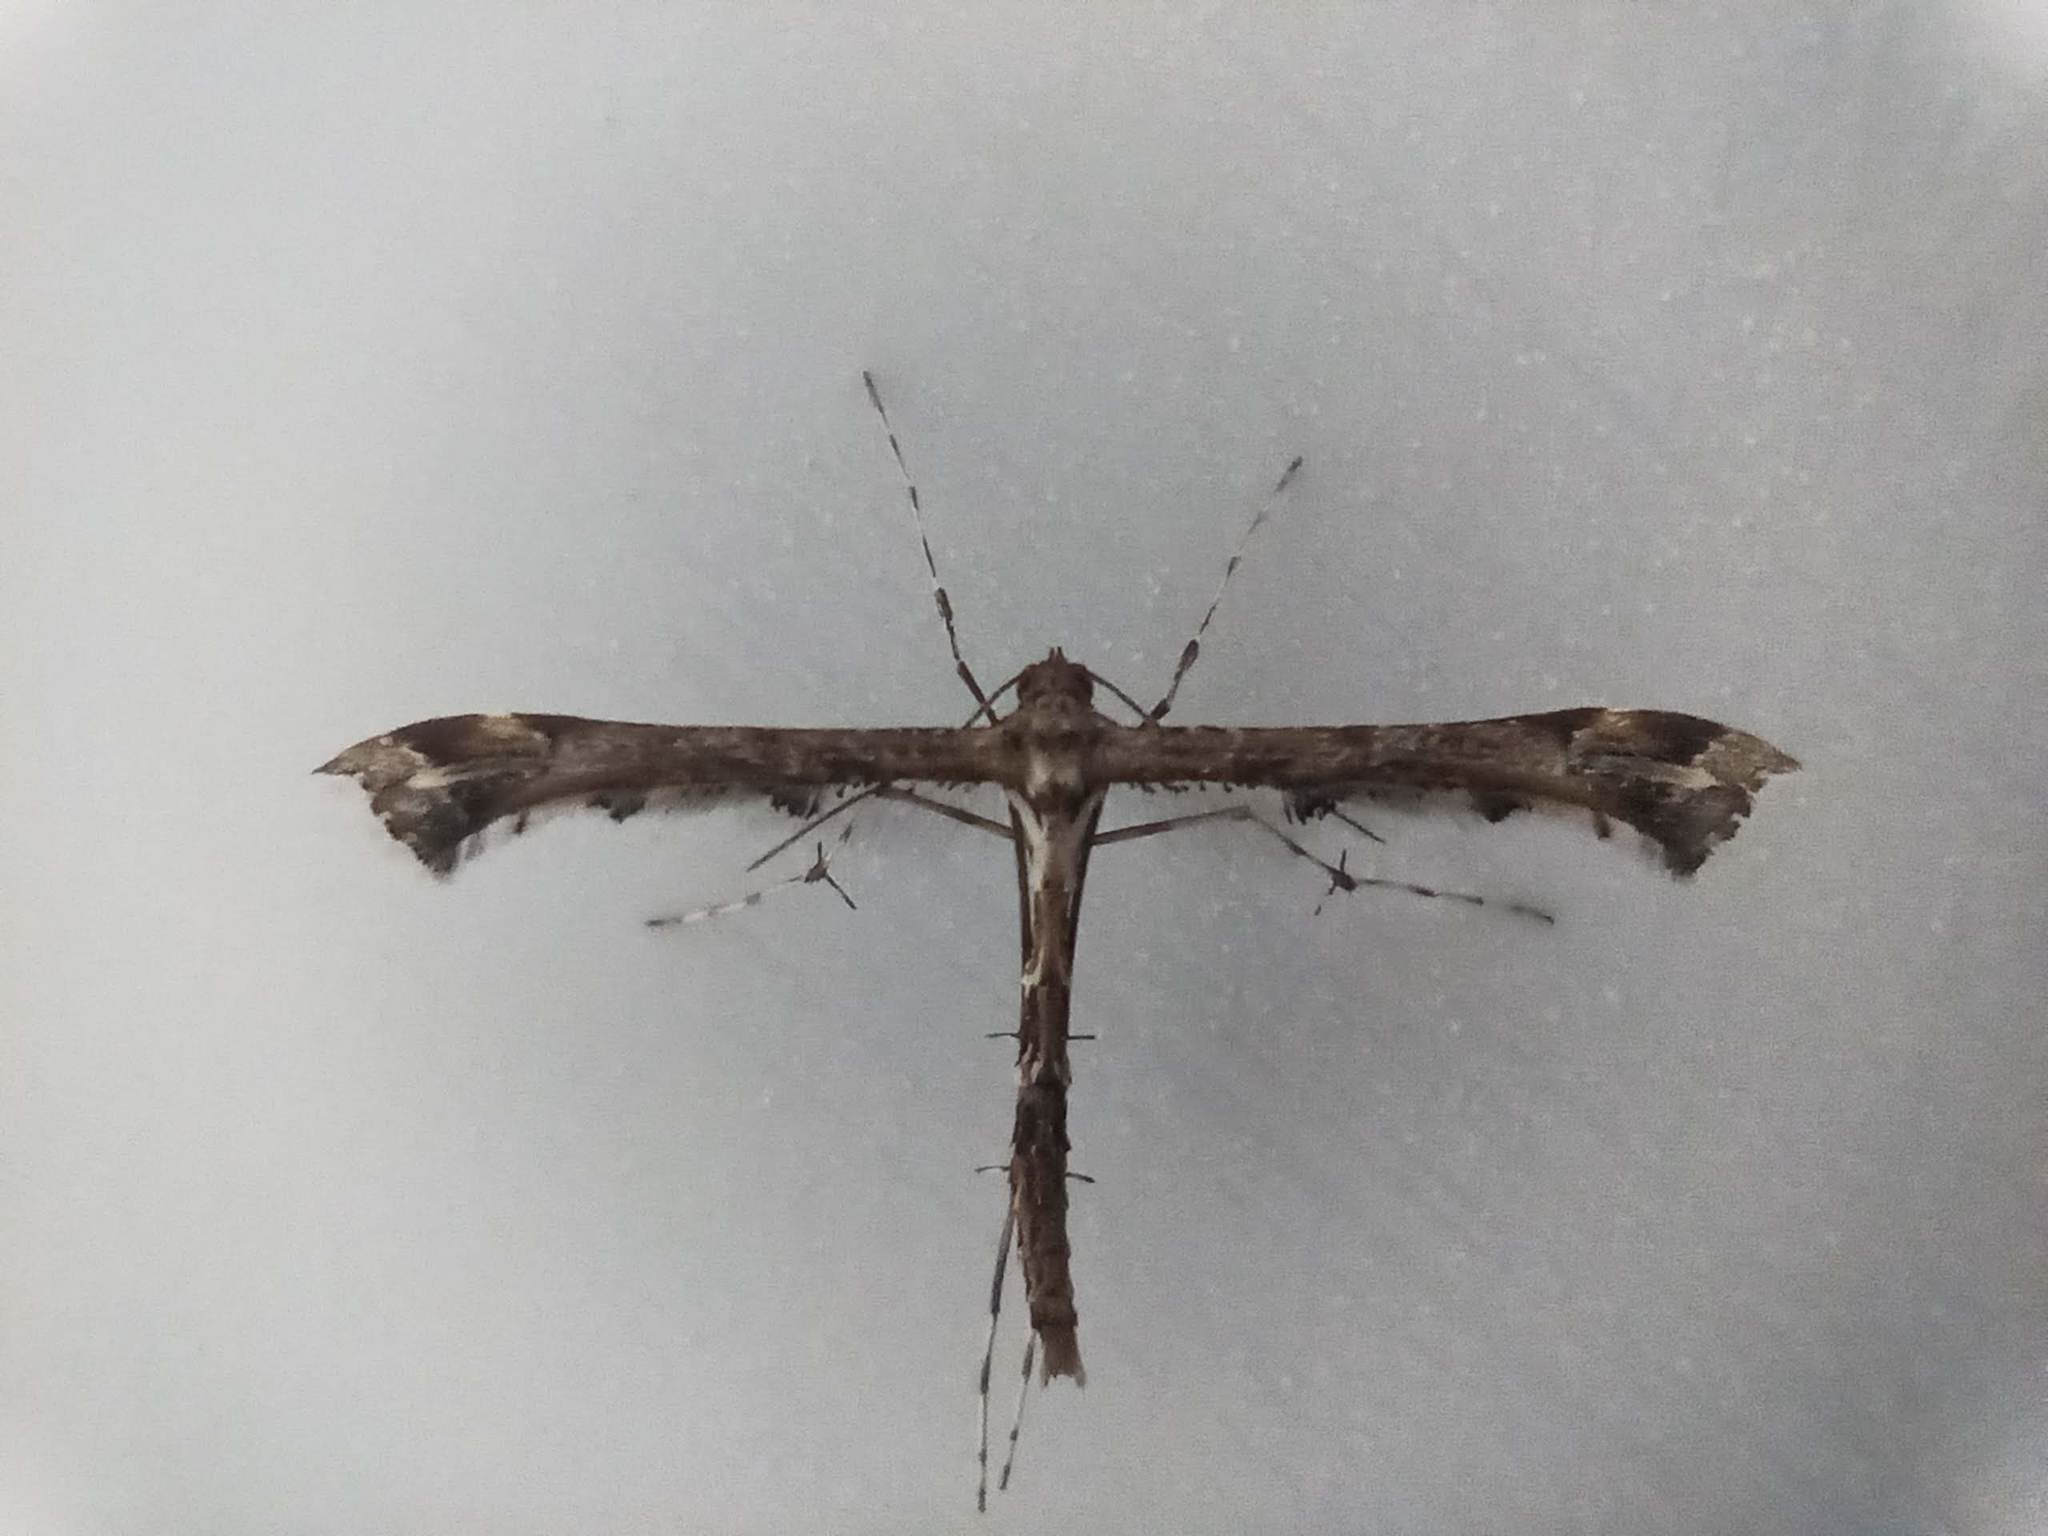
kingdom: Animalia
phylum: Arthropoda
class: Insecta
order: Lepidoptera
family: Pterophoridae
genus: Amblyptilia
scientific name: Amblyptilia acanthadactyla
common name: Beautiful plume
